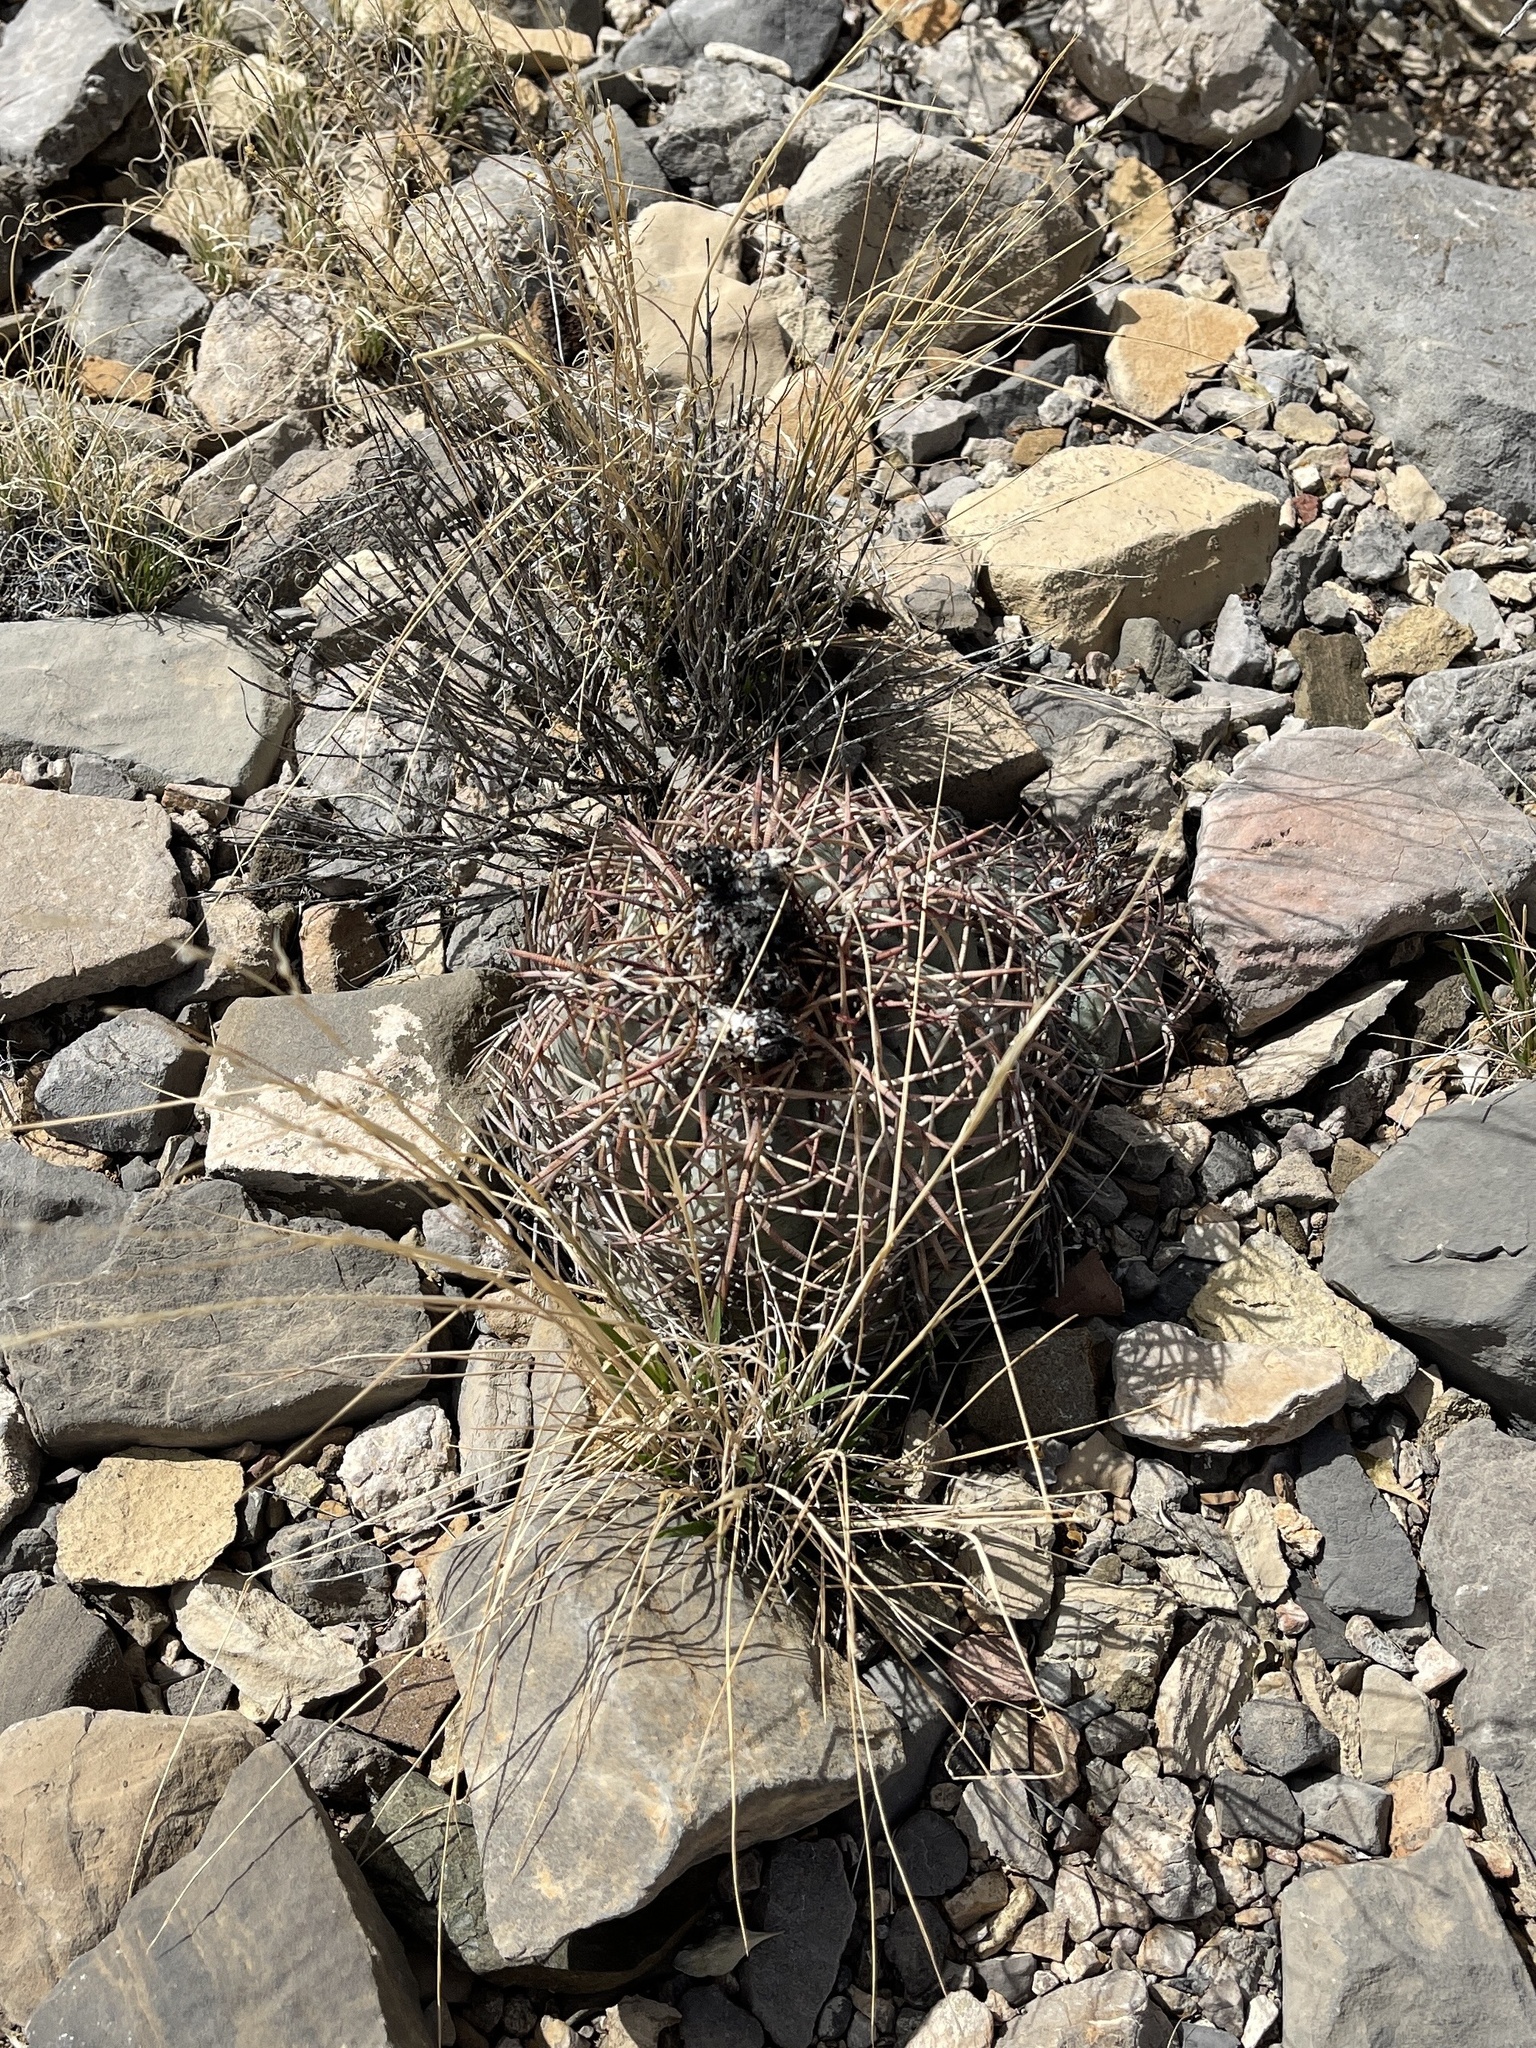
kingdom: Plantae
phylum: Tracheophyta
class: Magnoliopsida
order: Caryophyllales
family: Cactaceae
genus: Echinocactus
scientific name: Echinocactus horizonthalonius
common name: Devilshead
